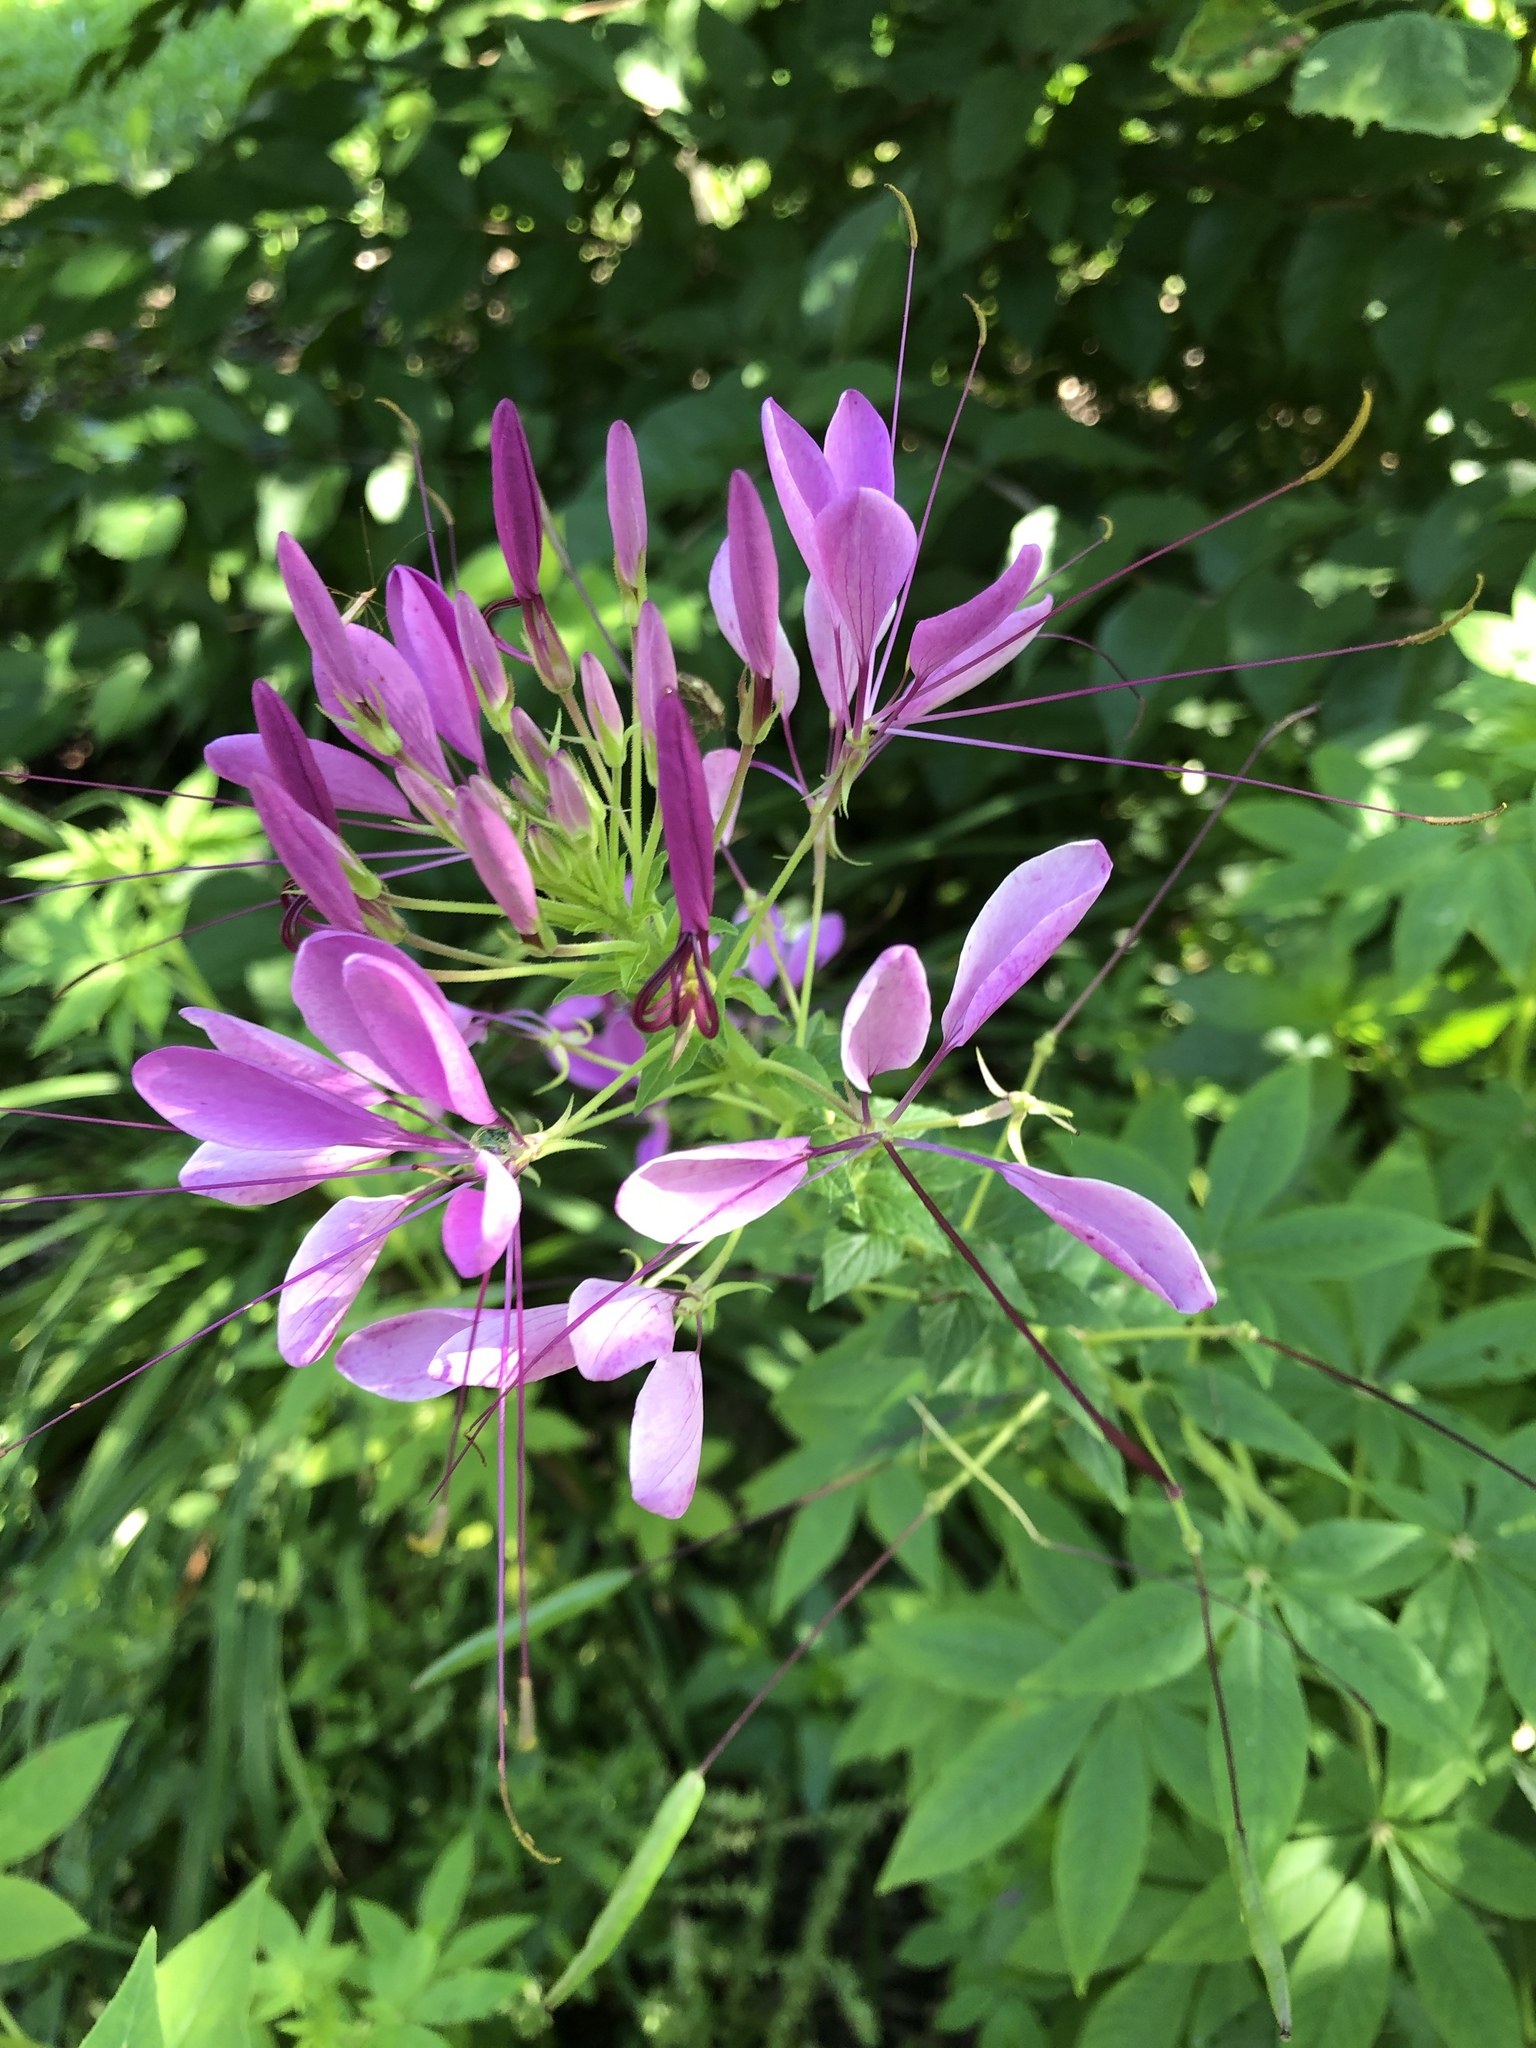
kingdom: Plantae
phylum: Tracheophyta
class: Magnoliopsida
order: Brassicales
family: Cleomaceae
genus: Tarenaya
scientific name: Tarenaya houtteana
